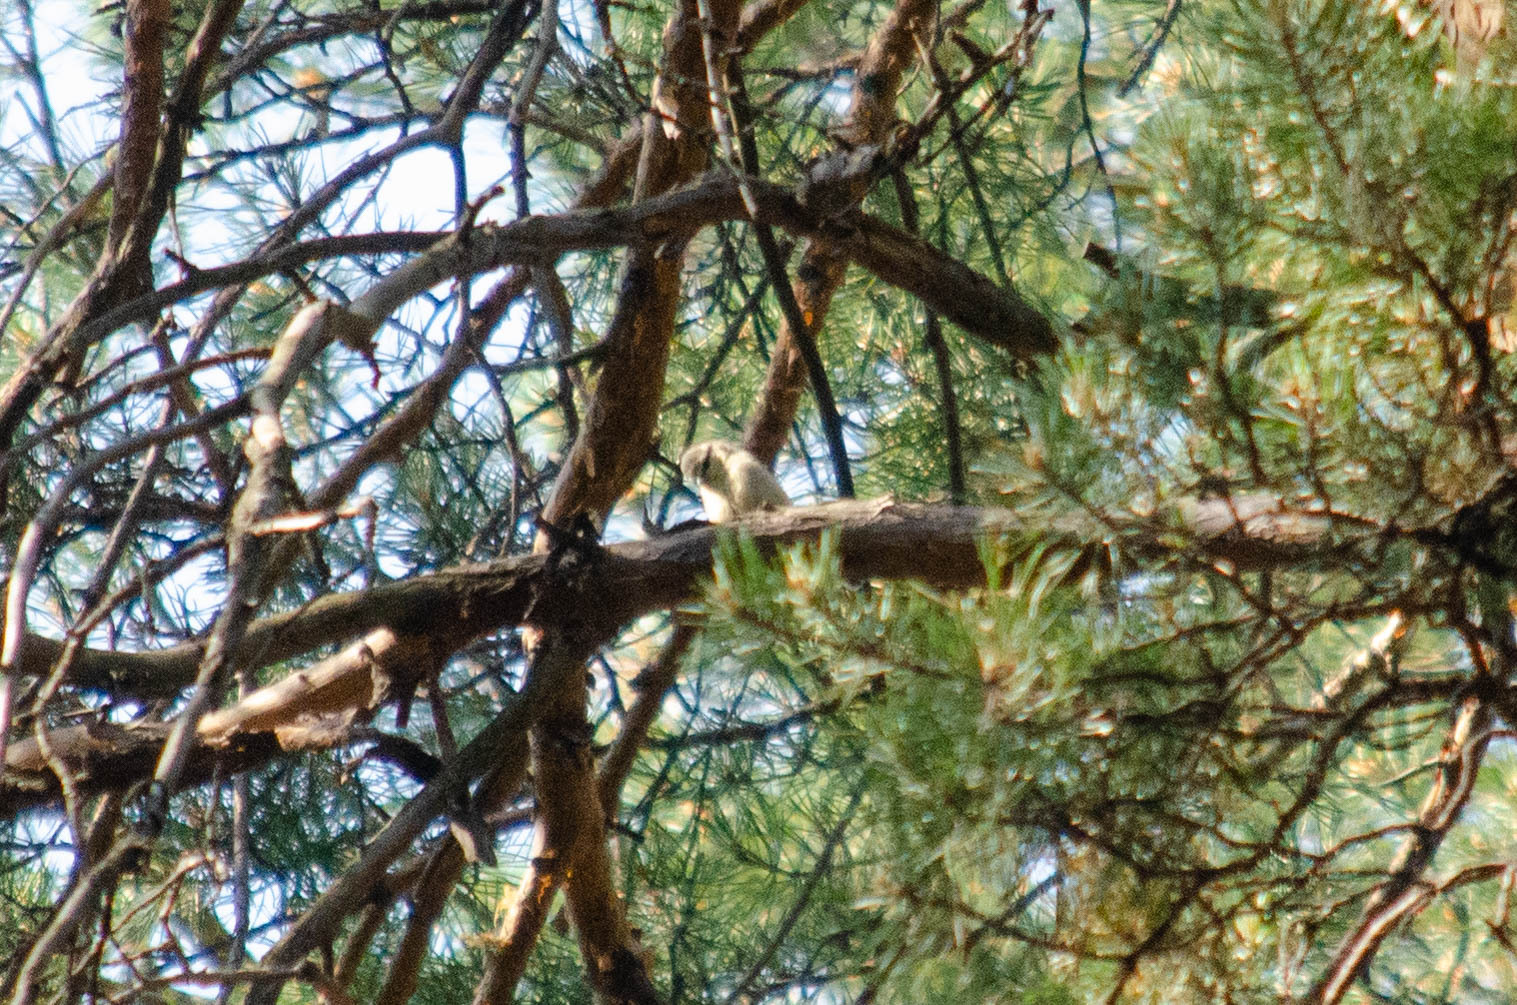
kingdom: Animalia
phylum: Chordata
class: Aves
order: Passeriformes
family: Paridae
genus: Cyanistes
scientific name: Cyanistes caeruleus
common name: Eurasian blue tit
